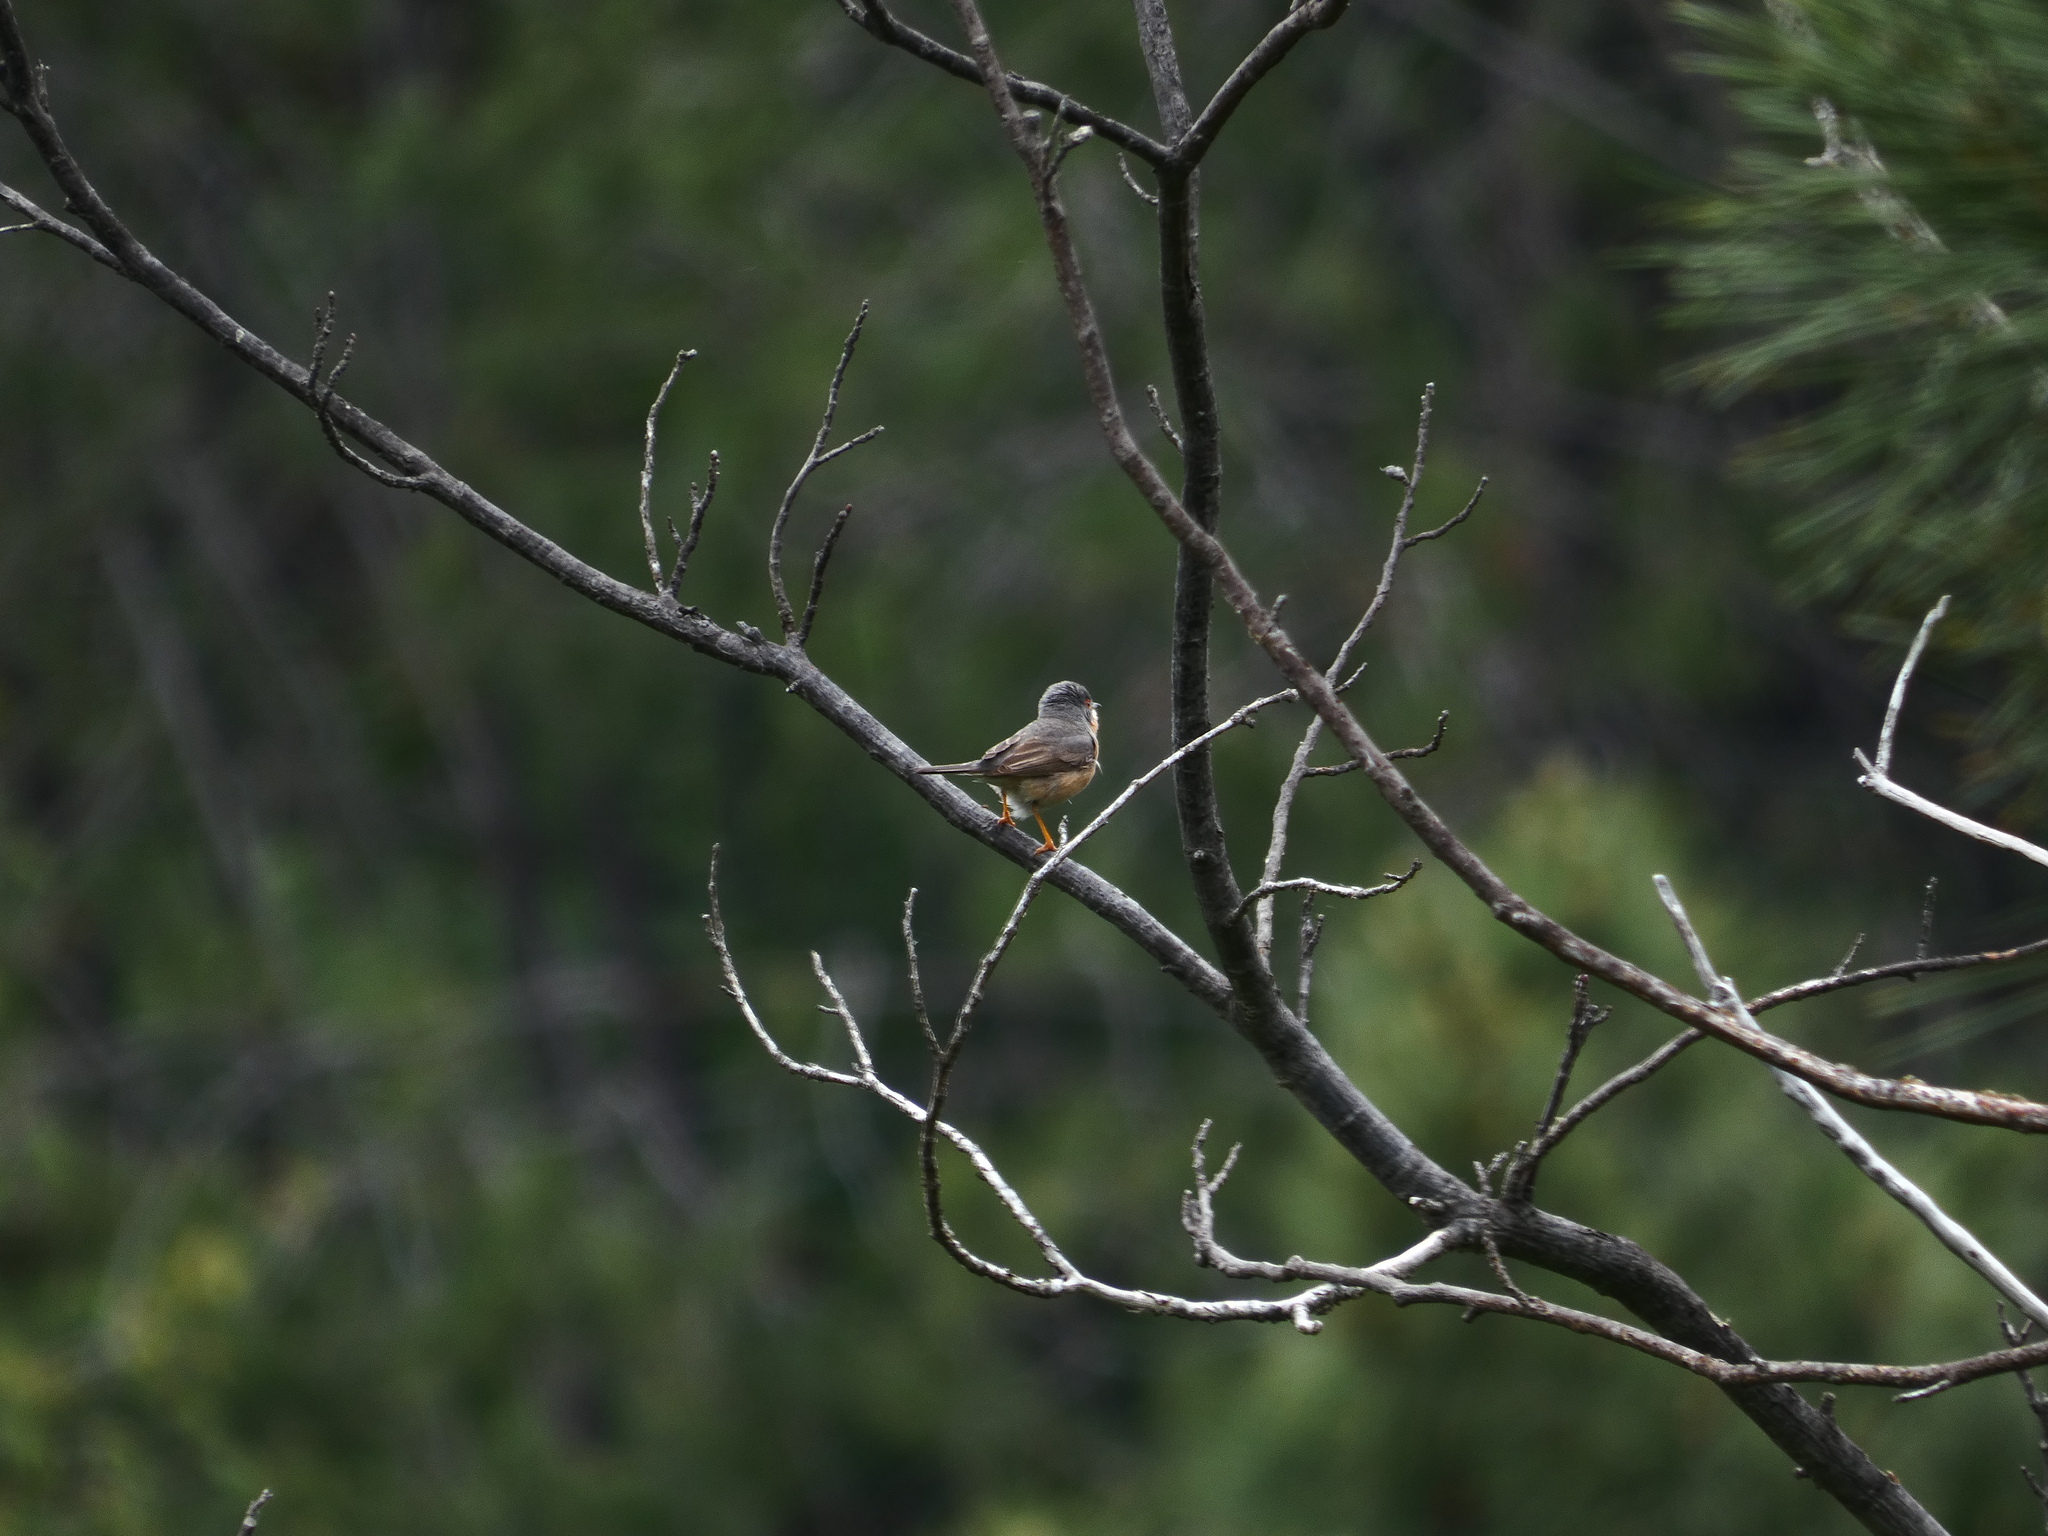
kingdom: Animalia
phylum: Chordata
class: Aves
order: Passeriformes
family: Sylviidae
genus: Curruca
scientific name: Curruca iberiae
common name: Western subalpine warbler
